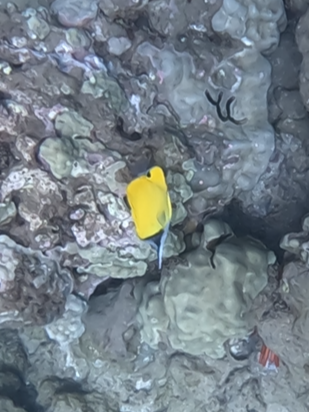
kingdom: Animalia
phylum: Chordata
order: Perciformes
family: Chaetodontidae
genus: Forcipiger
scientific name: Forcipiger flavissimus
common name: Forcepsfish
